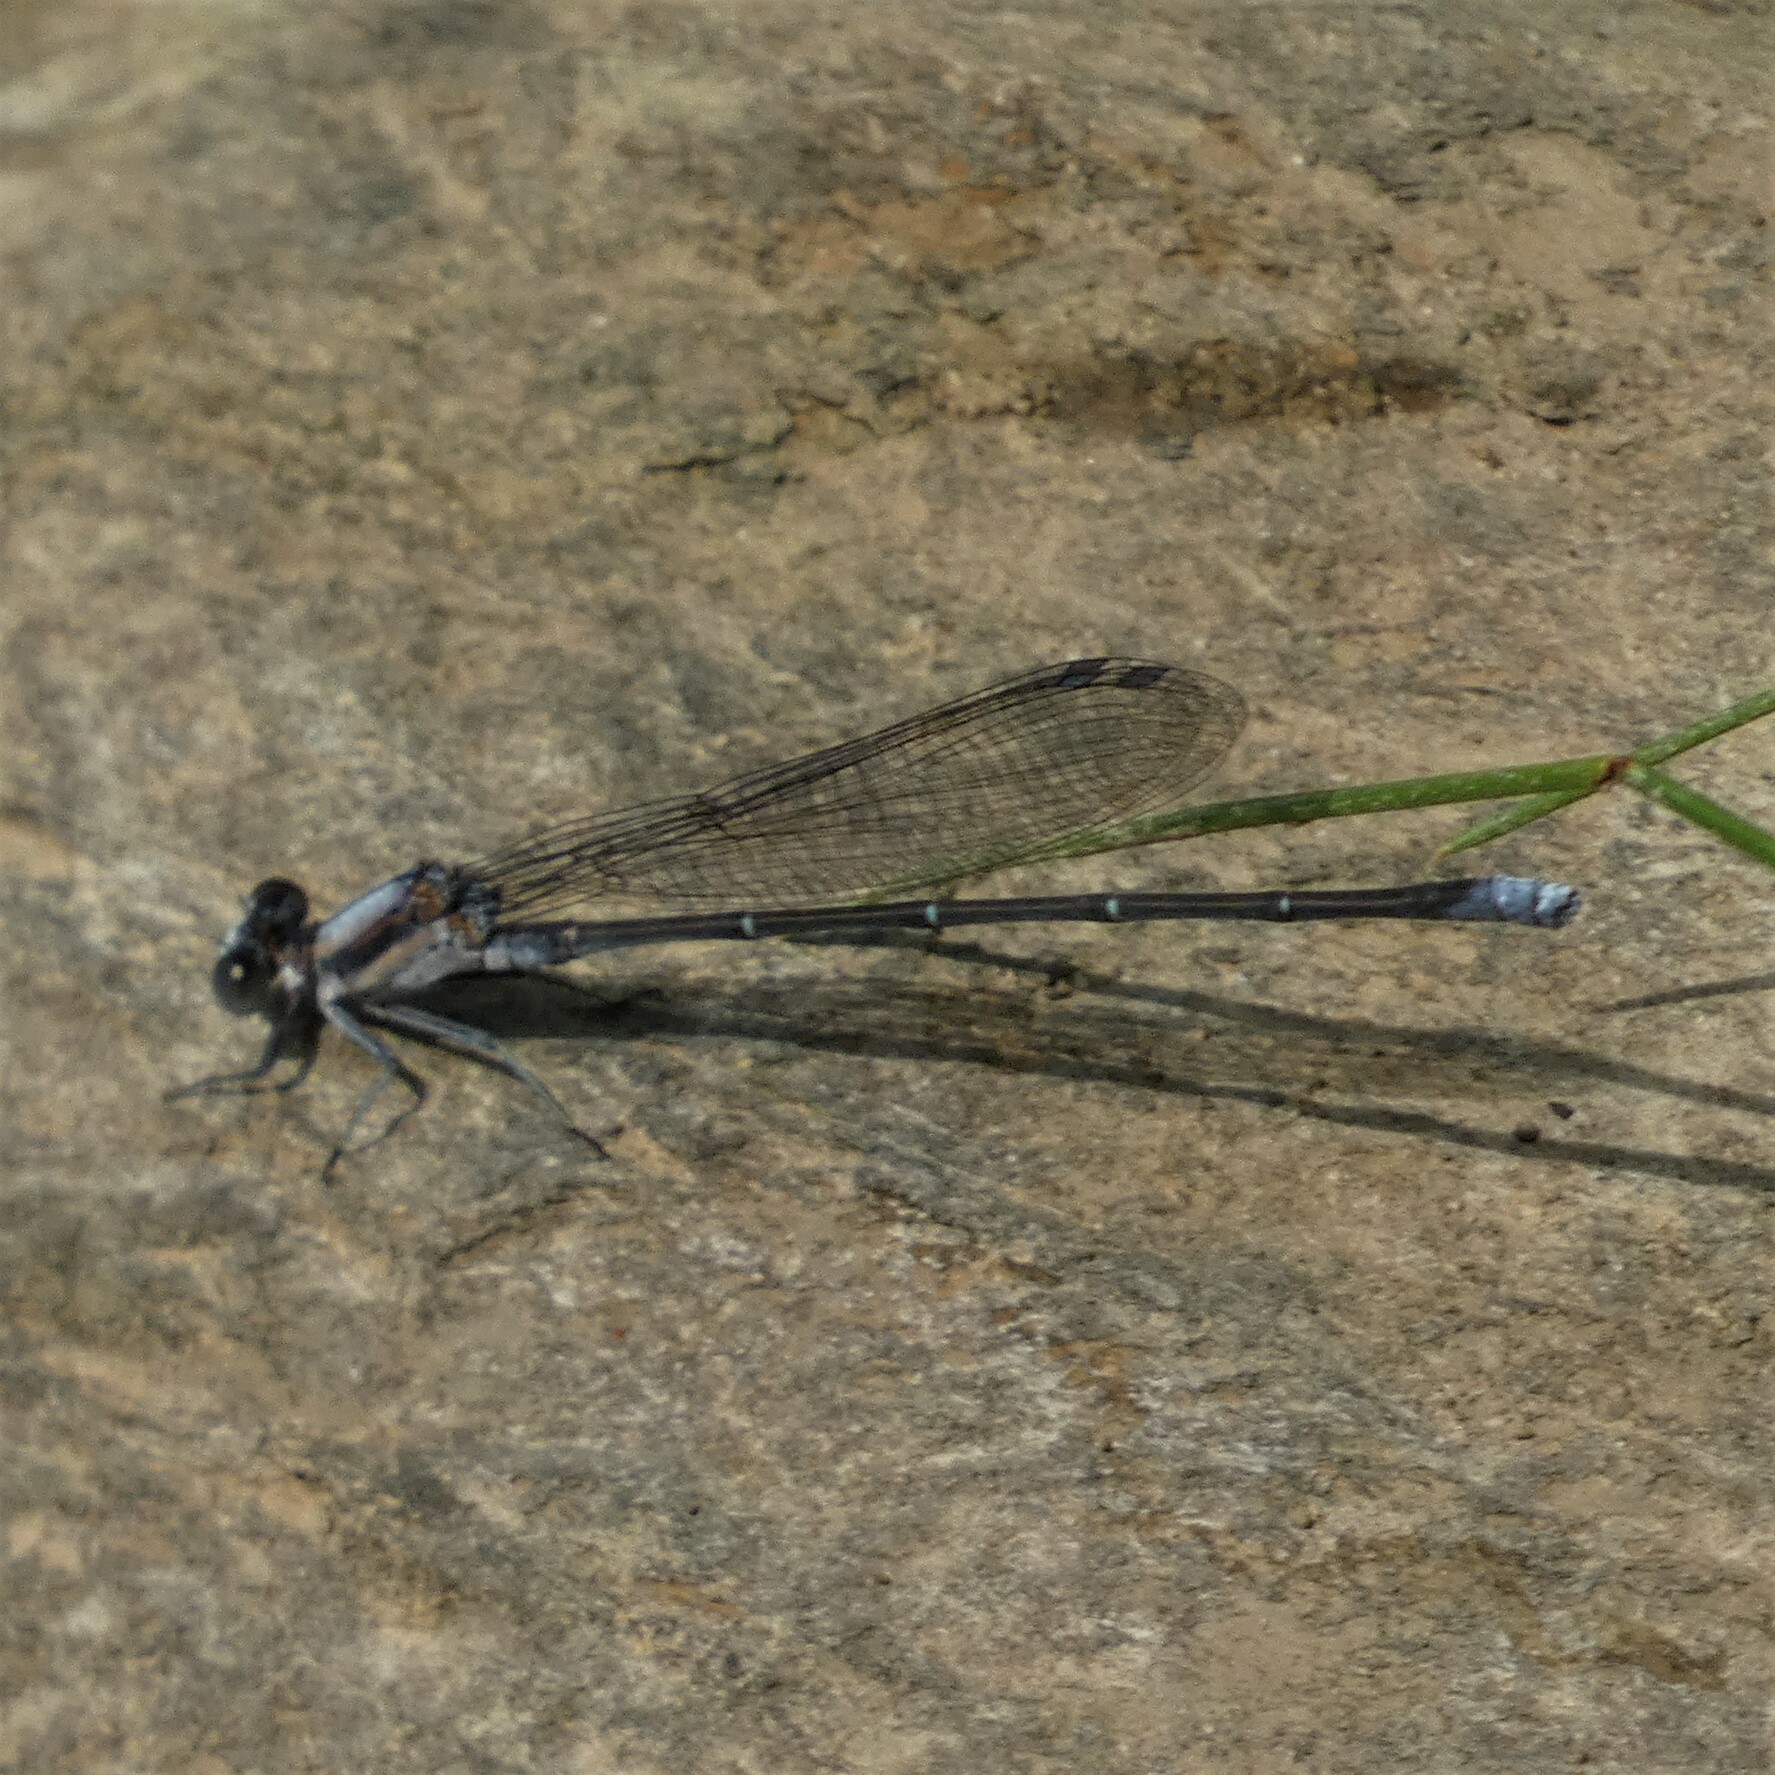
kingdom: Animalia
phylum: Arthropoda
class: Insecta
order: Odonata
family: Coenagrionidae
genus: Argia
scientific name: Argia moesta
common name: Powdered dancer
